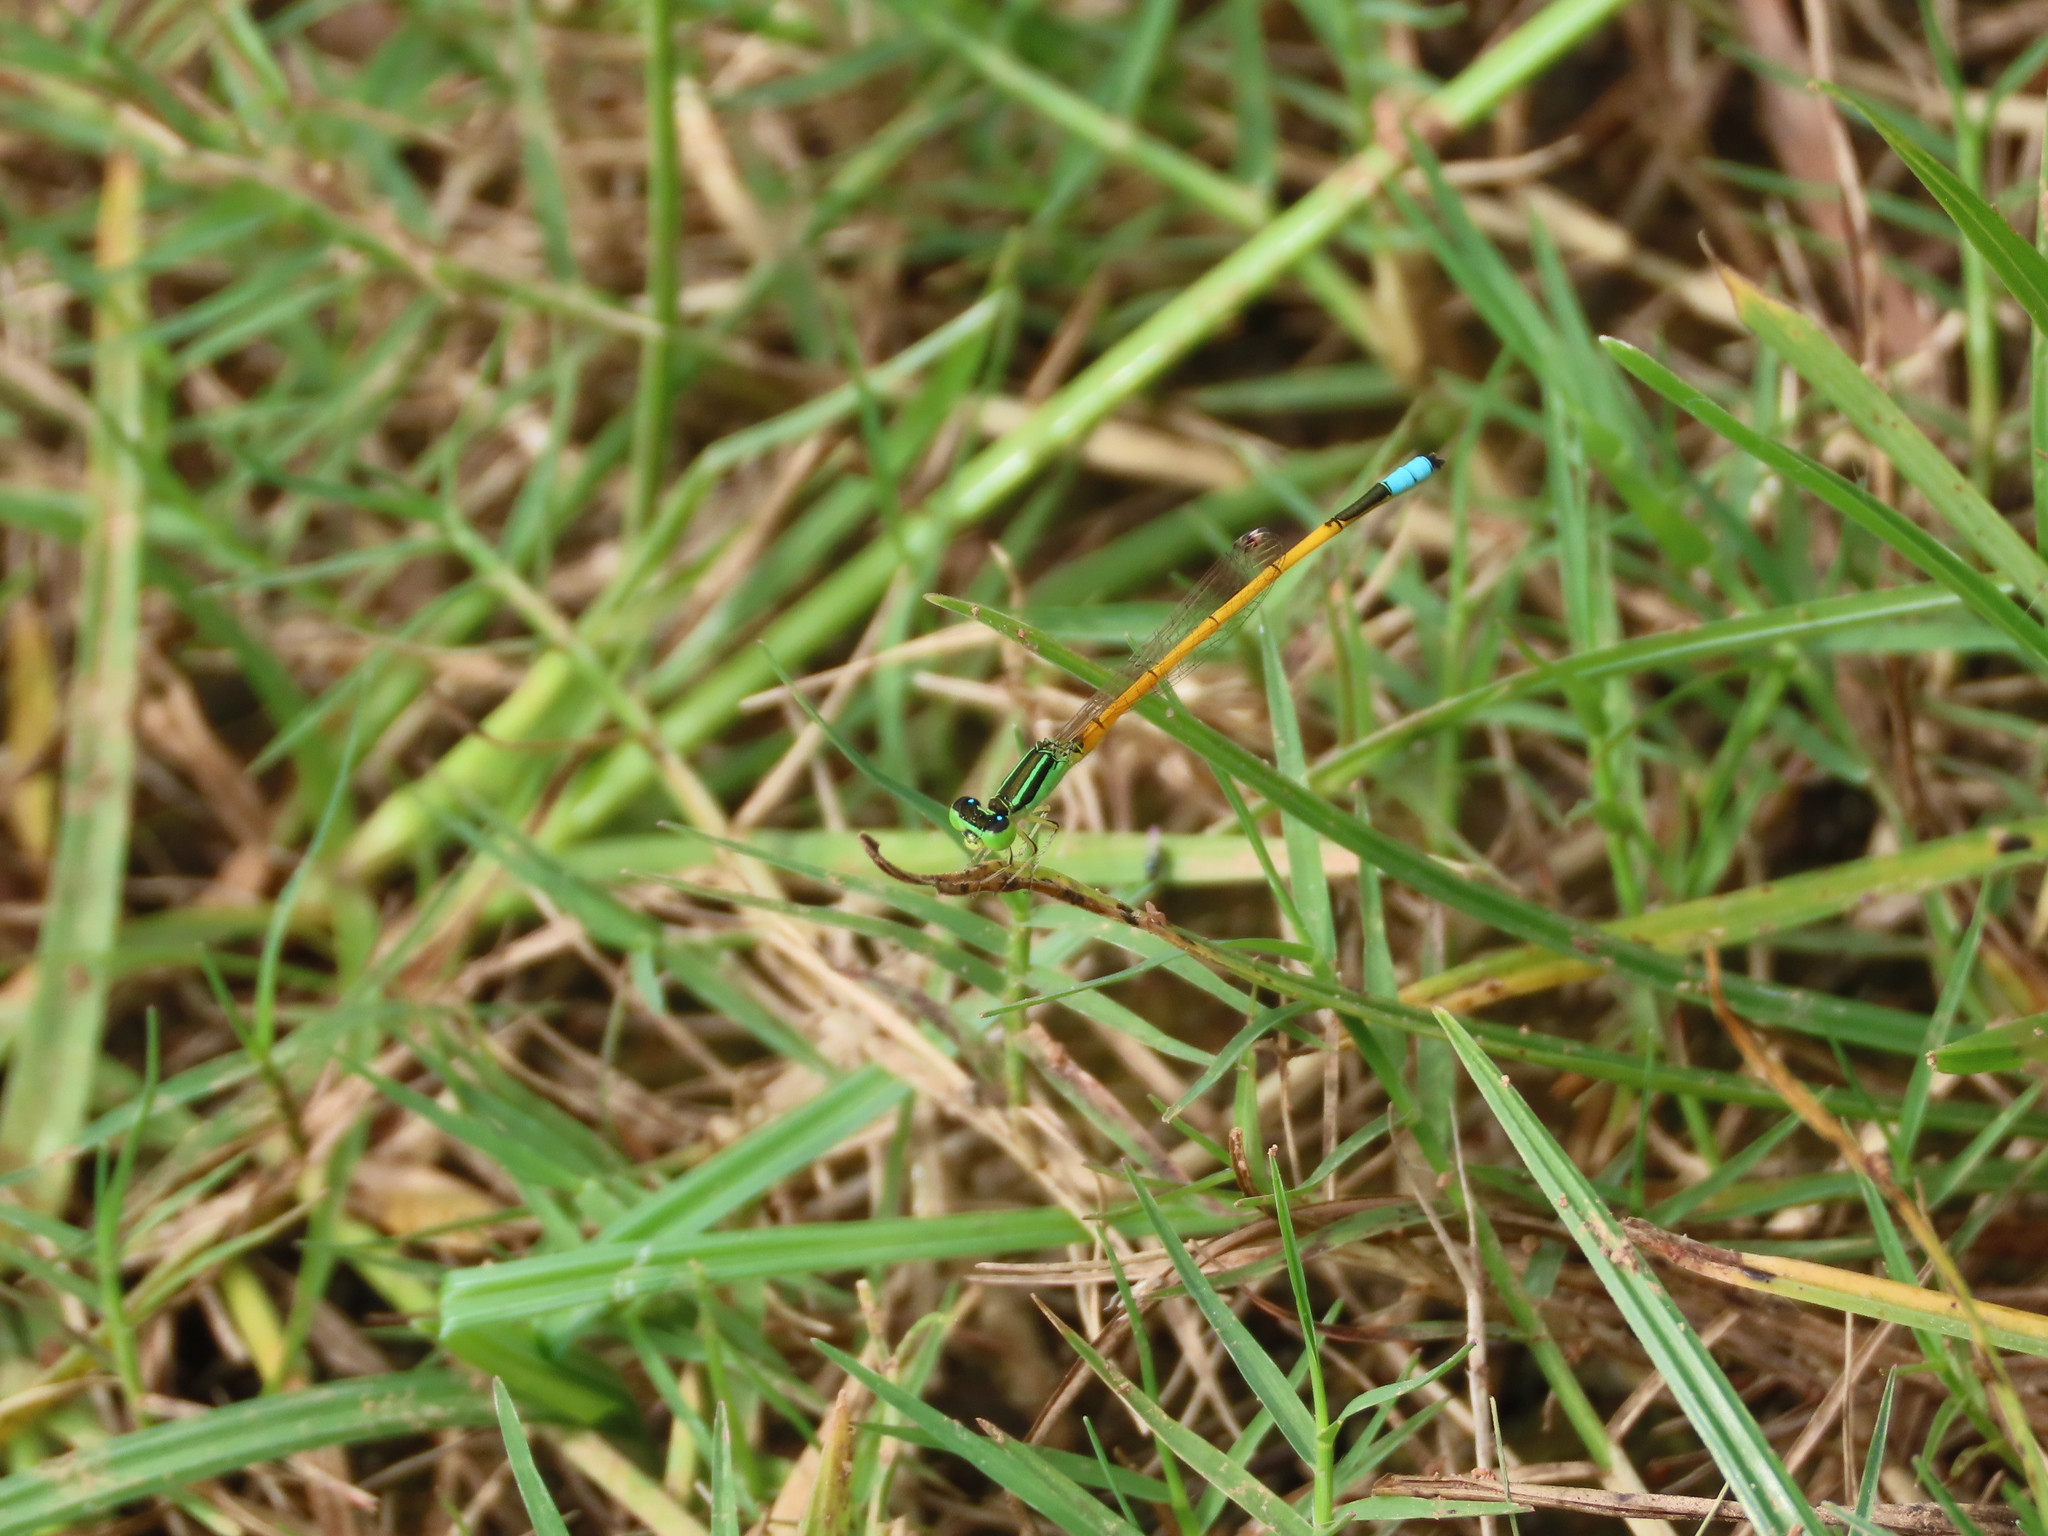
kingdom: Animalia
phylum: Arthropoda
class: Insecta
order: Odonata
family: Coenagrionidae
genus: Ischnura
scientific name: Ischnura rubilio
